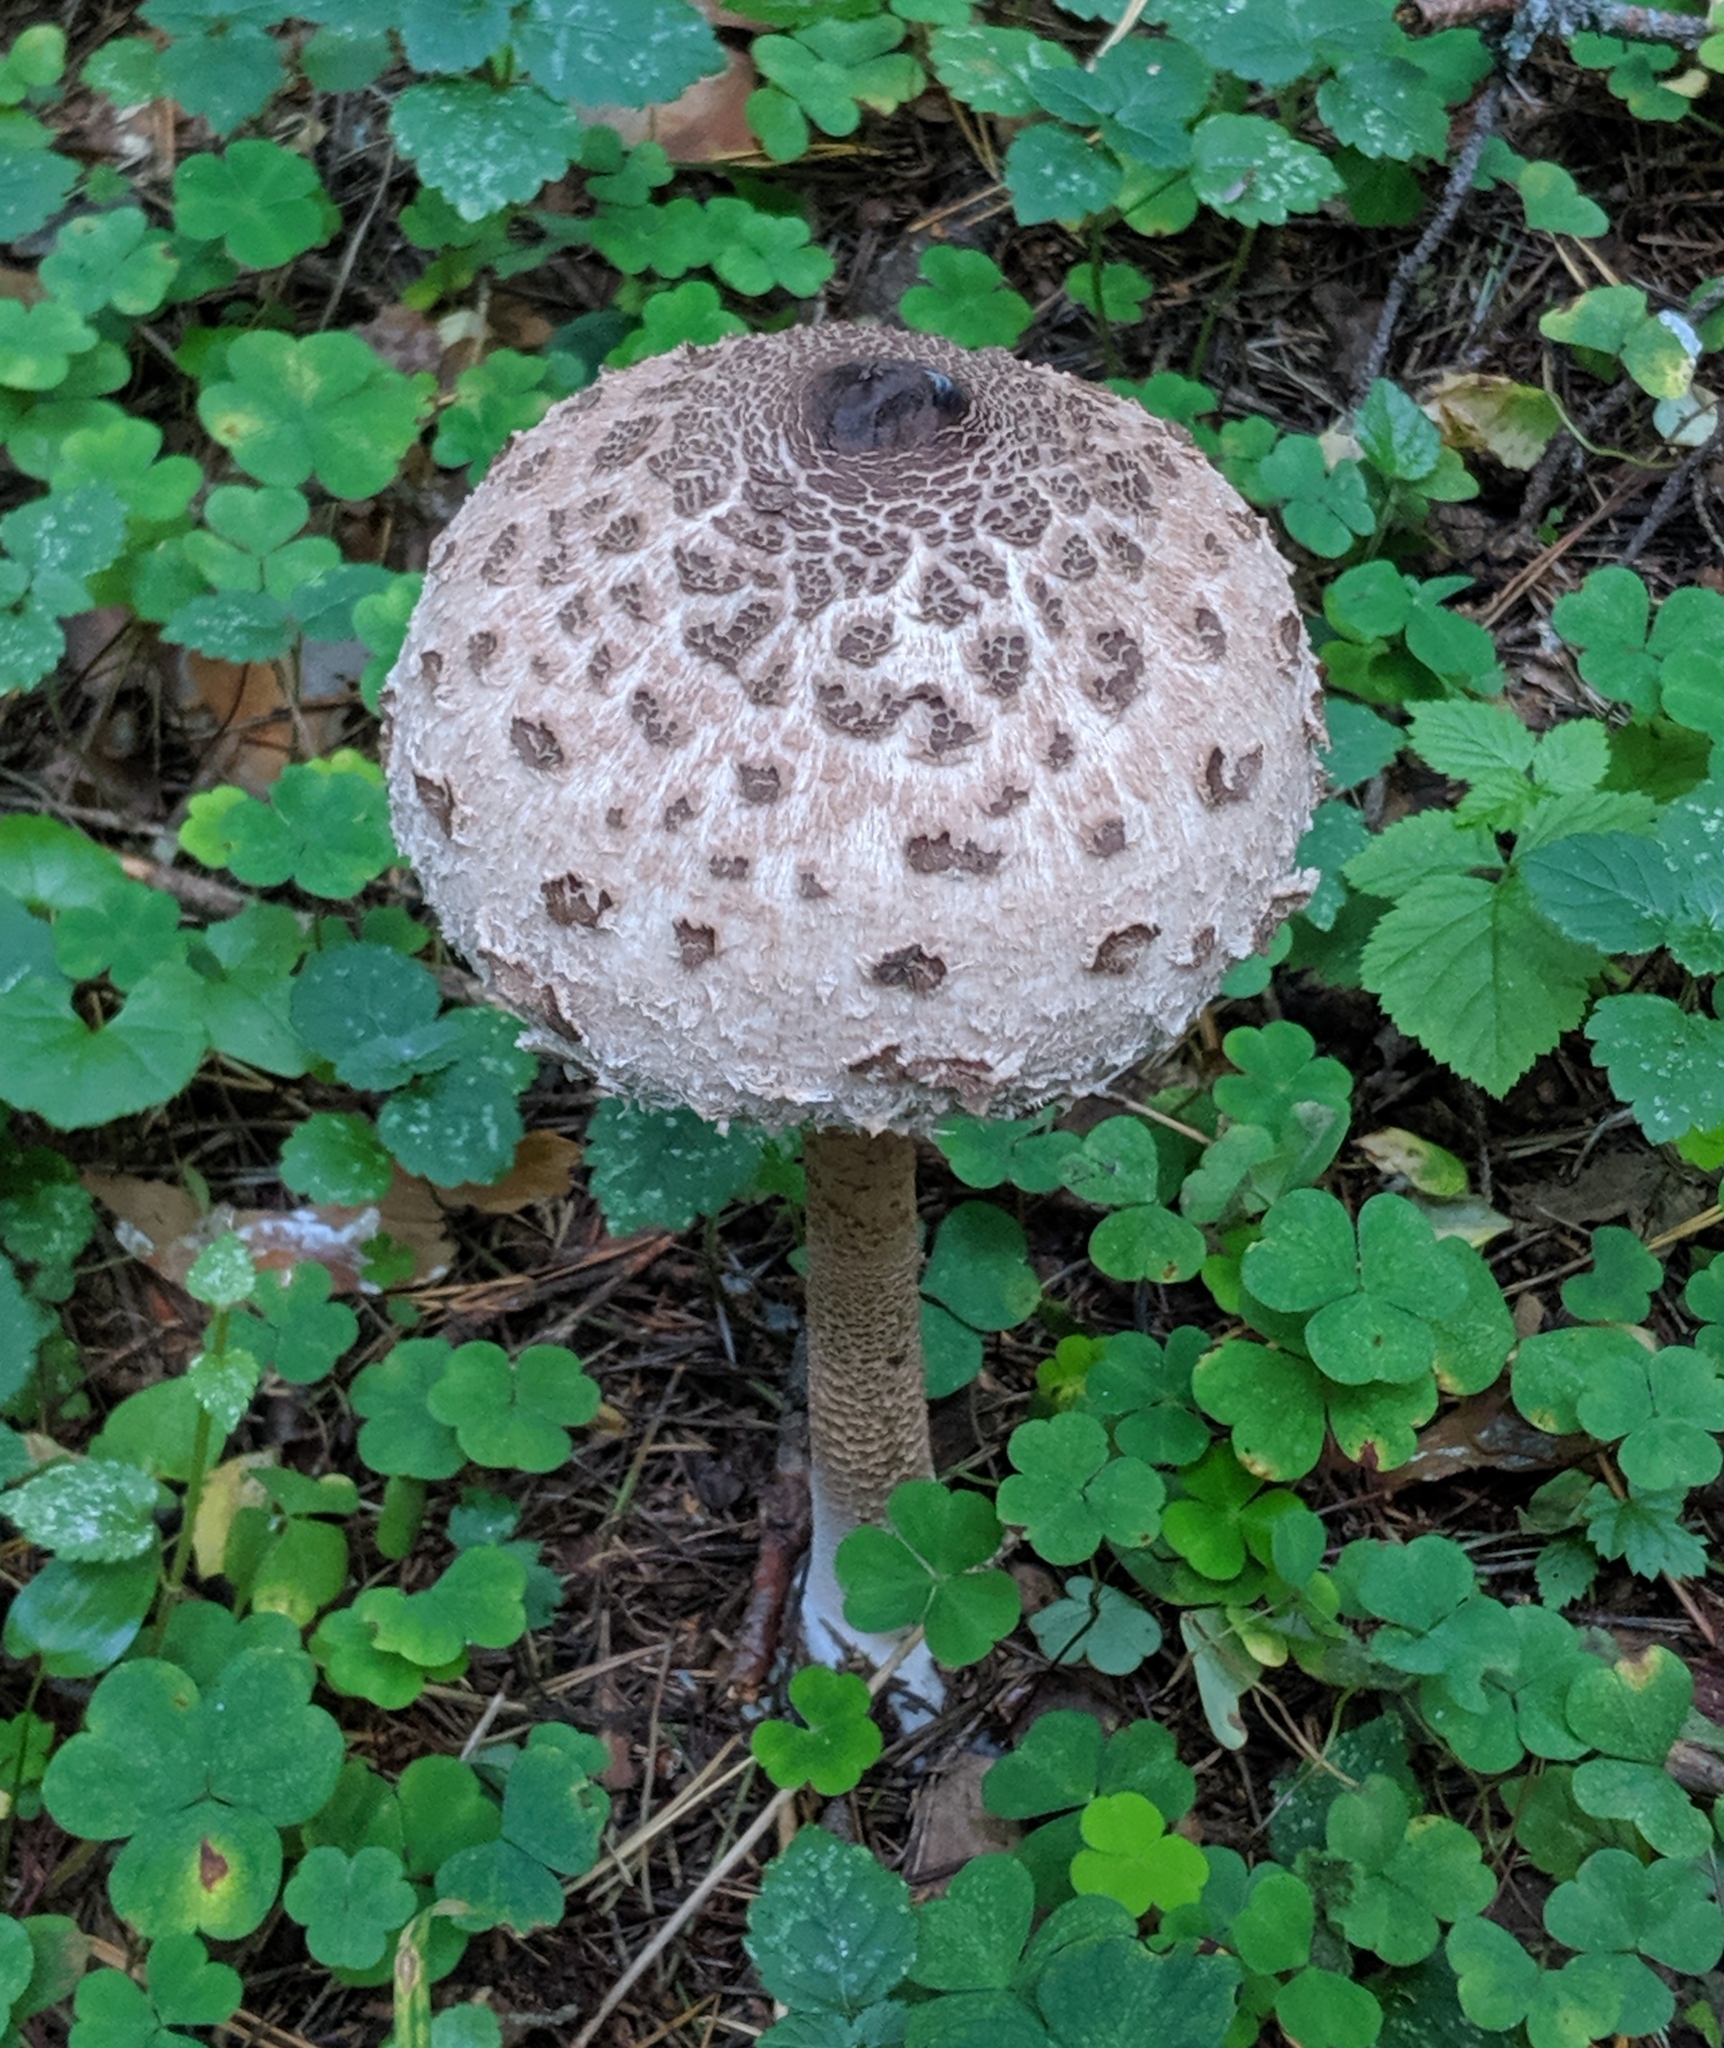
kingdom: Fungi
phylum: Basidiomycota
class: Agaricomycetes
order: Agaricales
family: Agaricaceae
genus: Macrolepiota
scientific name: Macrolepiota procera
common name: Parasol
